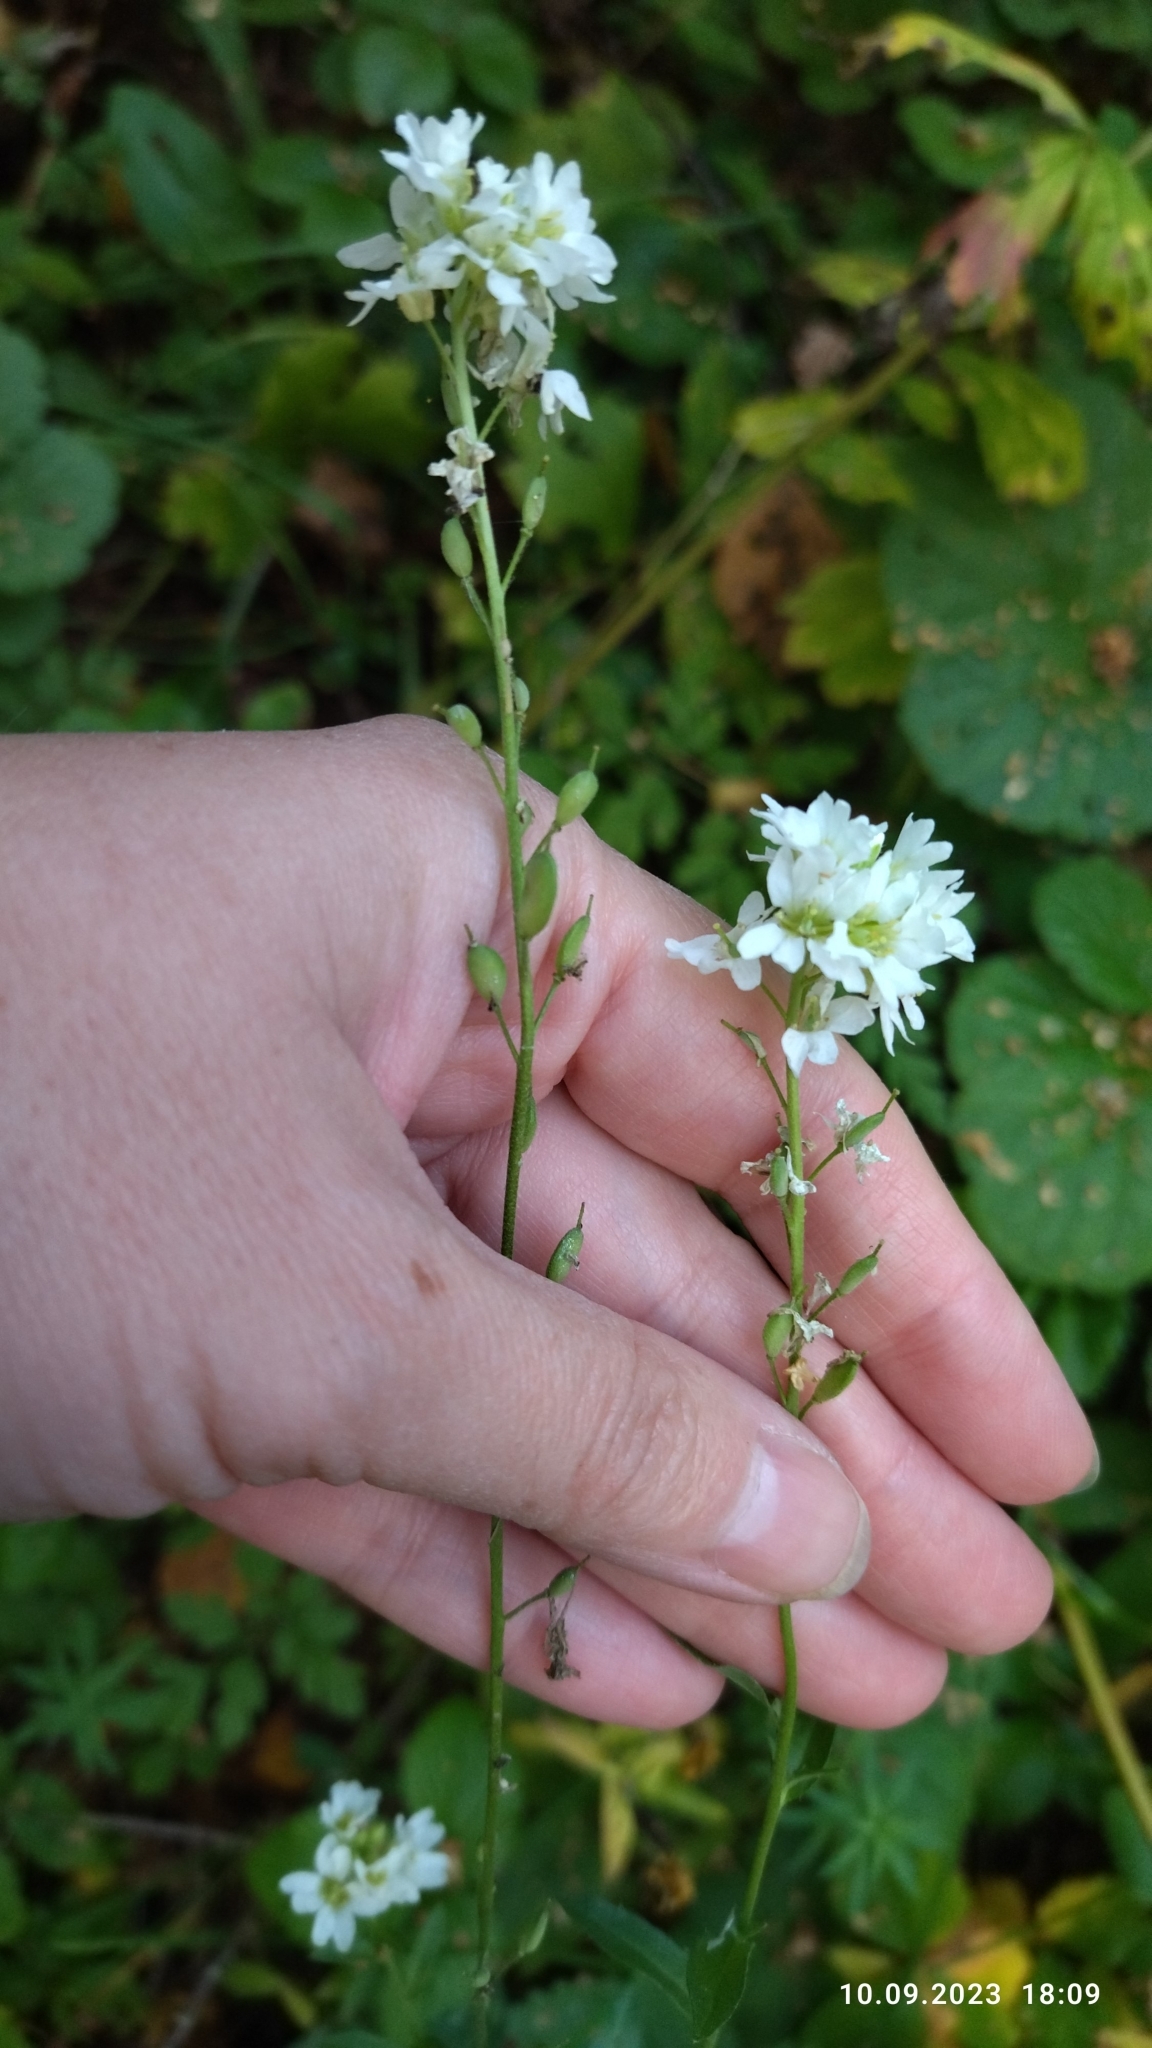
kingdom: Plantae
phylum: Tracheophyta
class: Magnoliopsida
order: Brassicales
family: Brassicaceae
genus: Berteroa
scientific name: Berteroa incana
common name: Hoary alison
